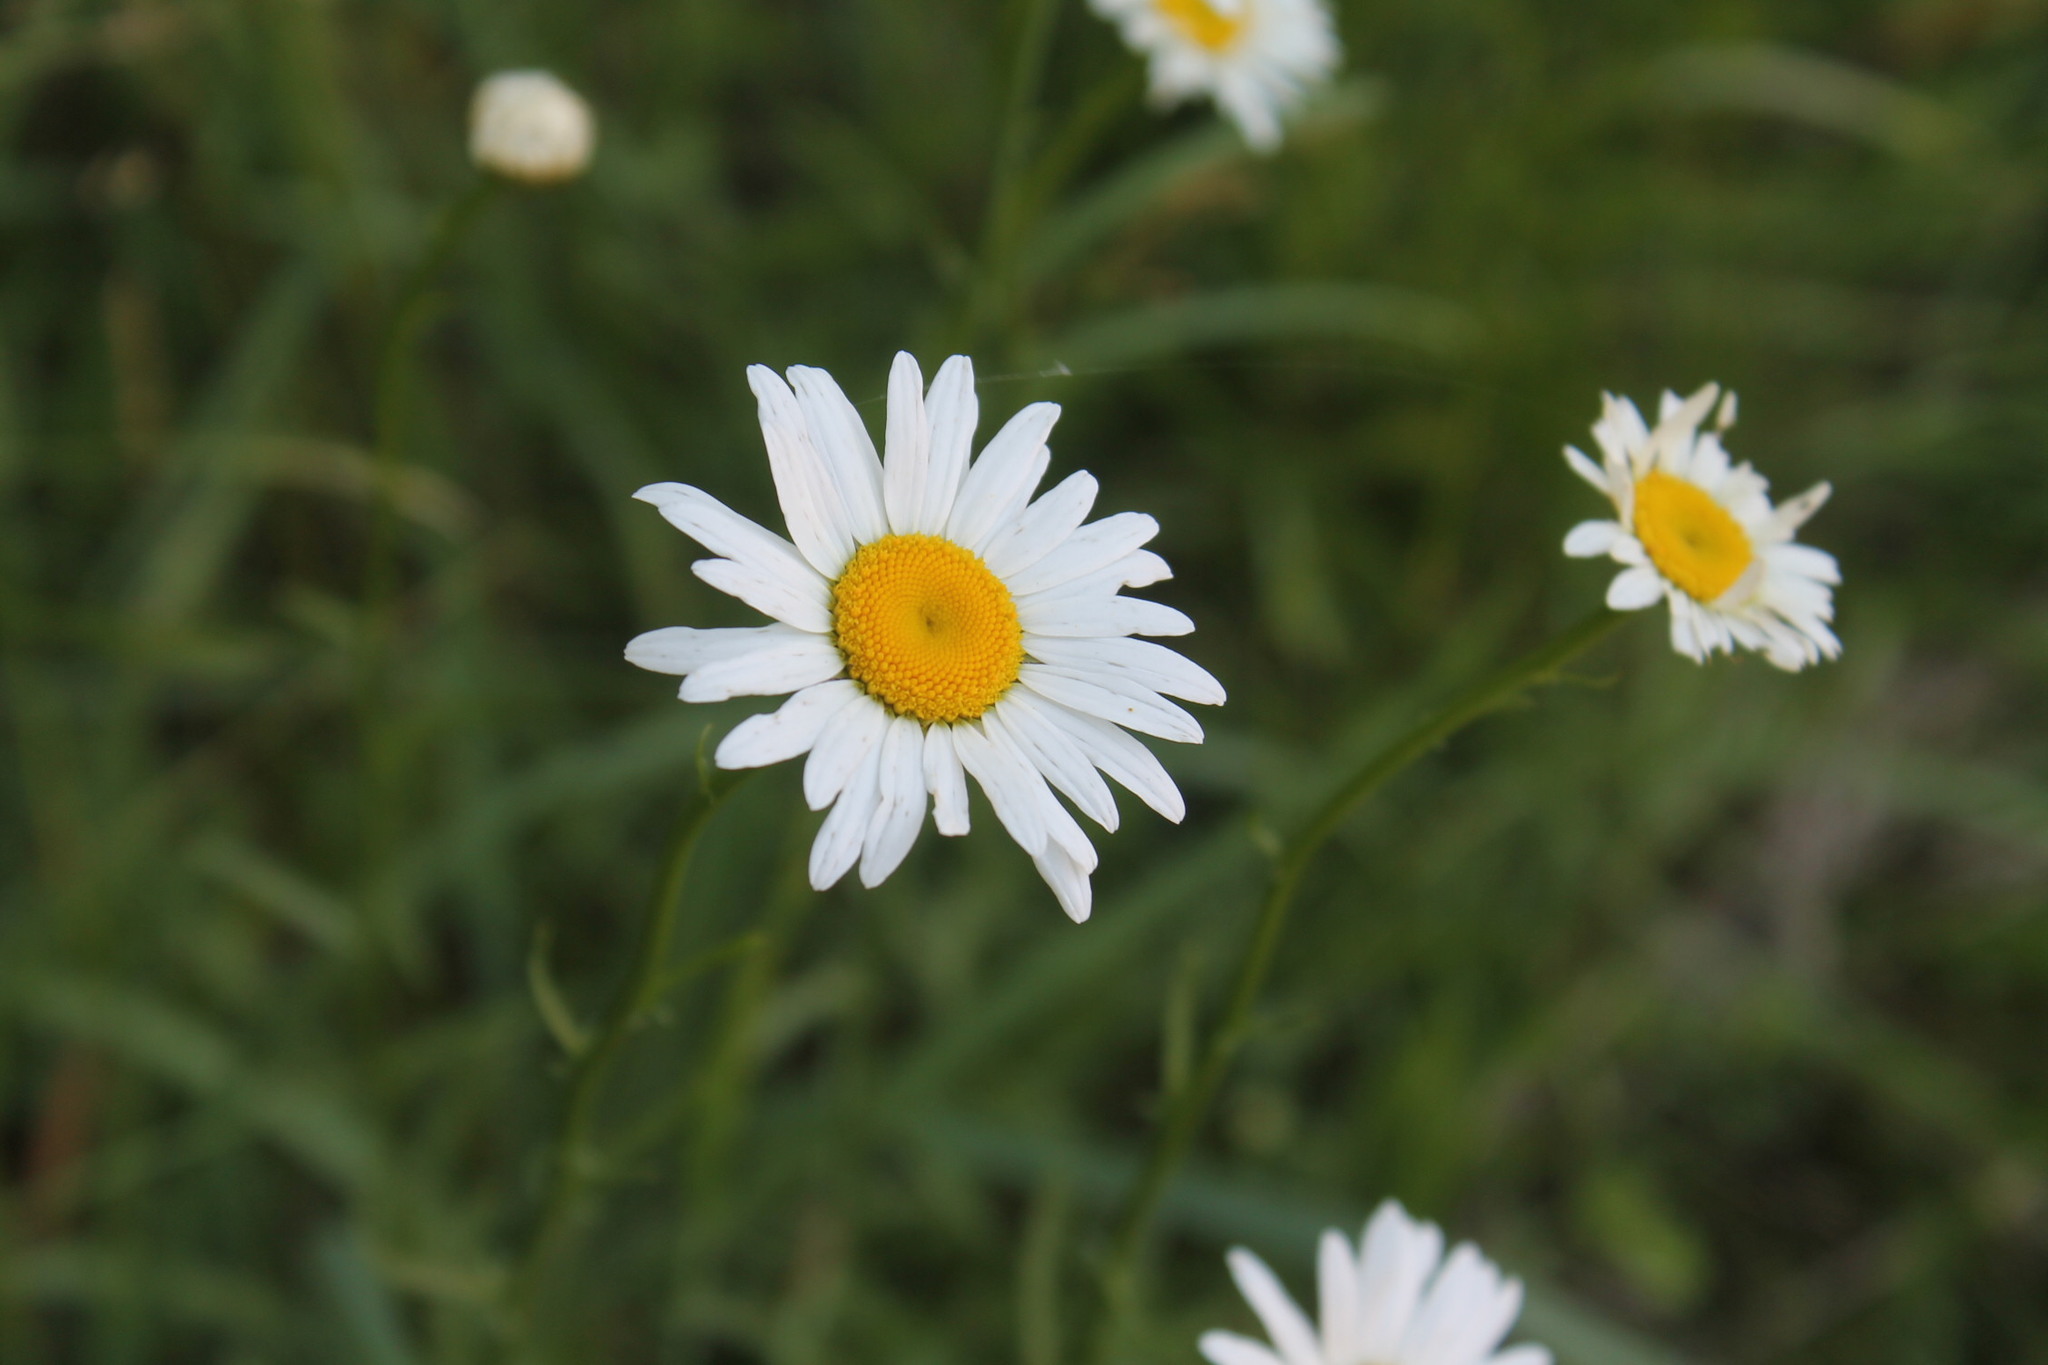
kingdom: Plantae
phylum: Tracheophyta
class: Magnoliopsida
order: Asterales
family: Asteraceae
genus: Leucanthemum
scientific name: Leucanthemum vulgare
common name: Oxeye daisy
